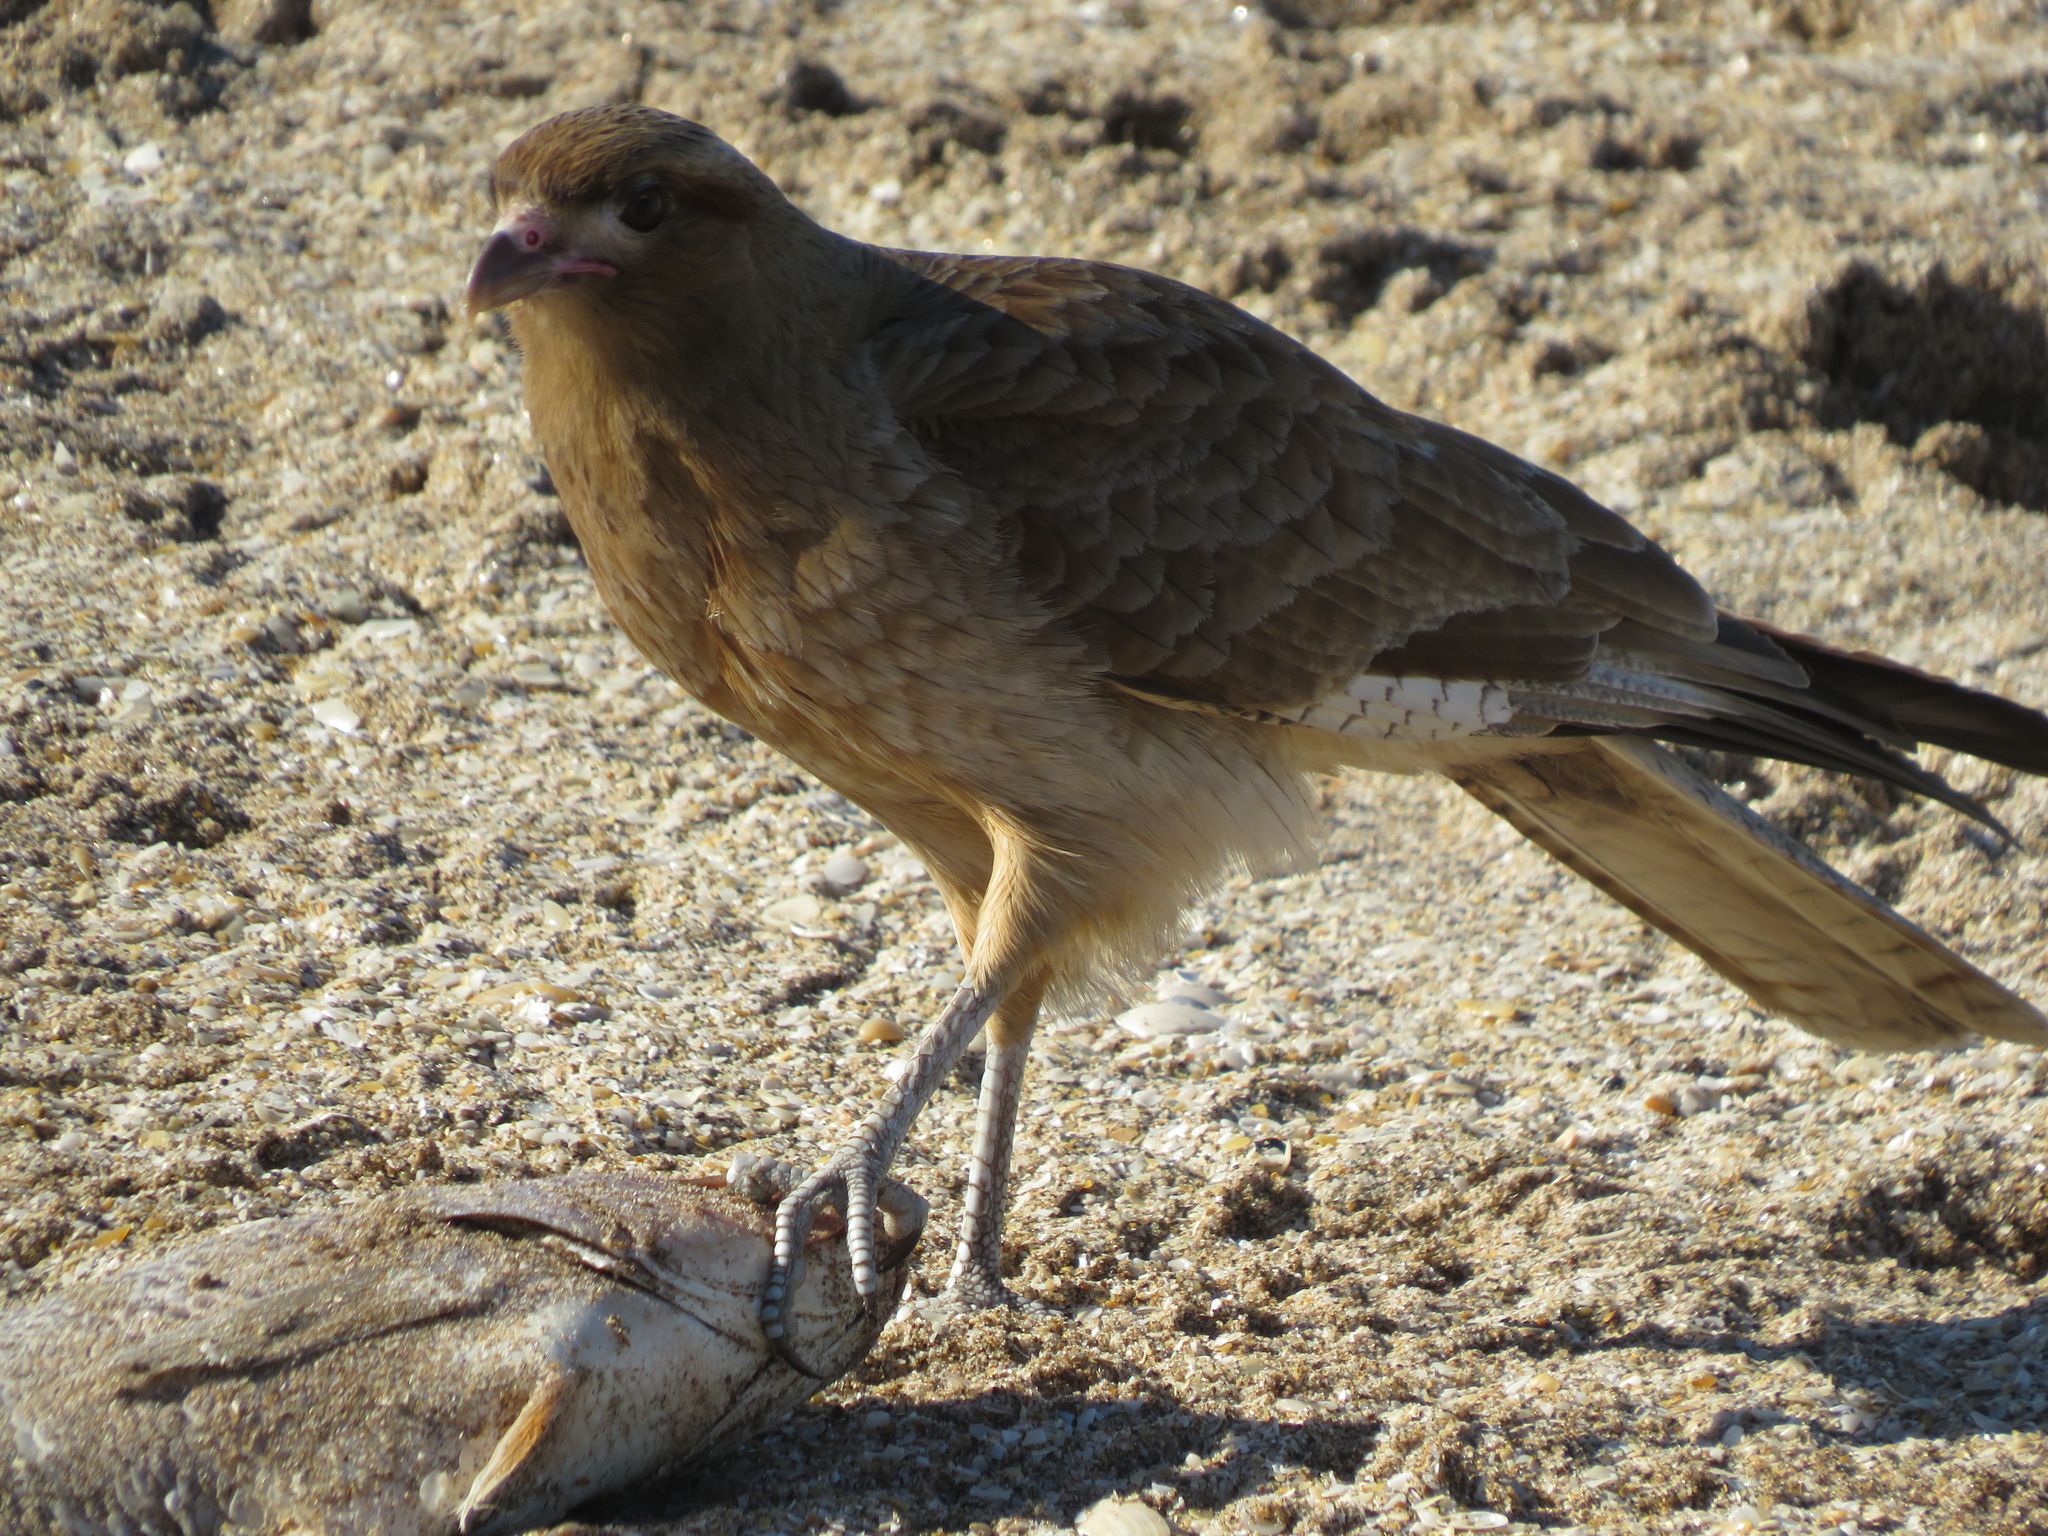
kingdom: Animalia
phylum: Chordata
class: Aves
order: Falconiformes
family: Falconidae
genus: Daptrius
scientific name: Daptrius
